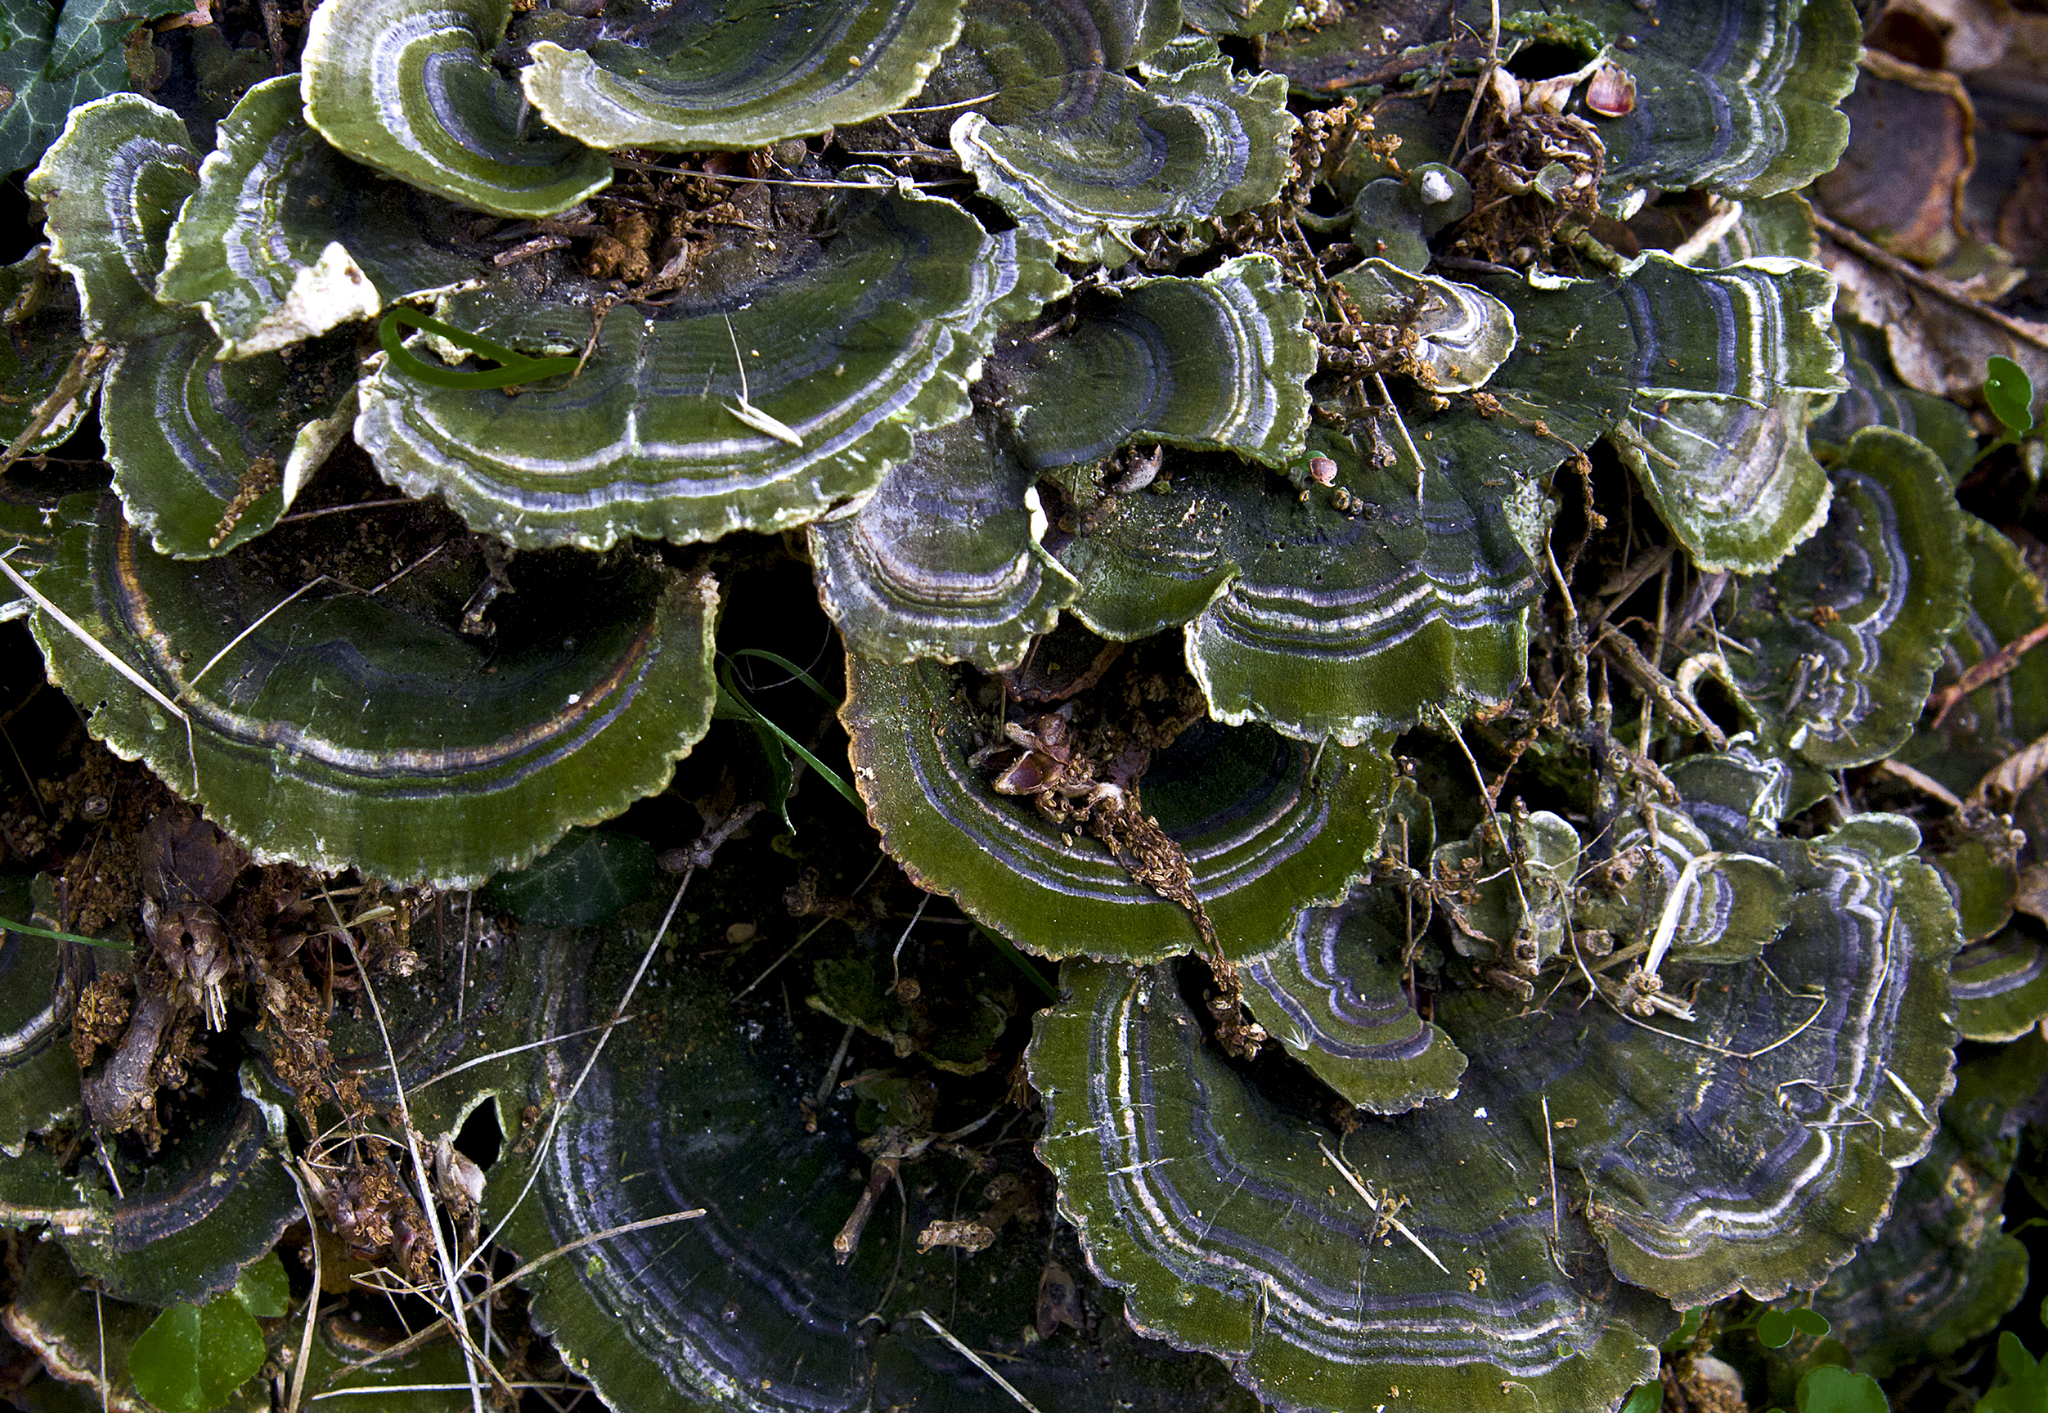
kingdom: Fungi
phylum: Basidiomycota
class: Agaricomycetes
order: Polyporales
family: Polyporaceae
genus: Trametes
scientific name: Trametes versicolor
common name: Turkeytail
